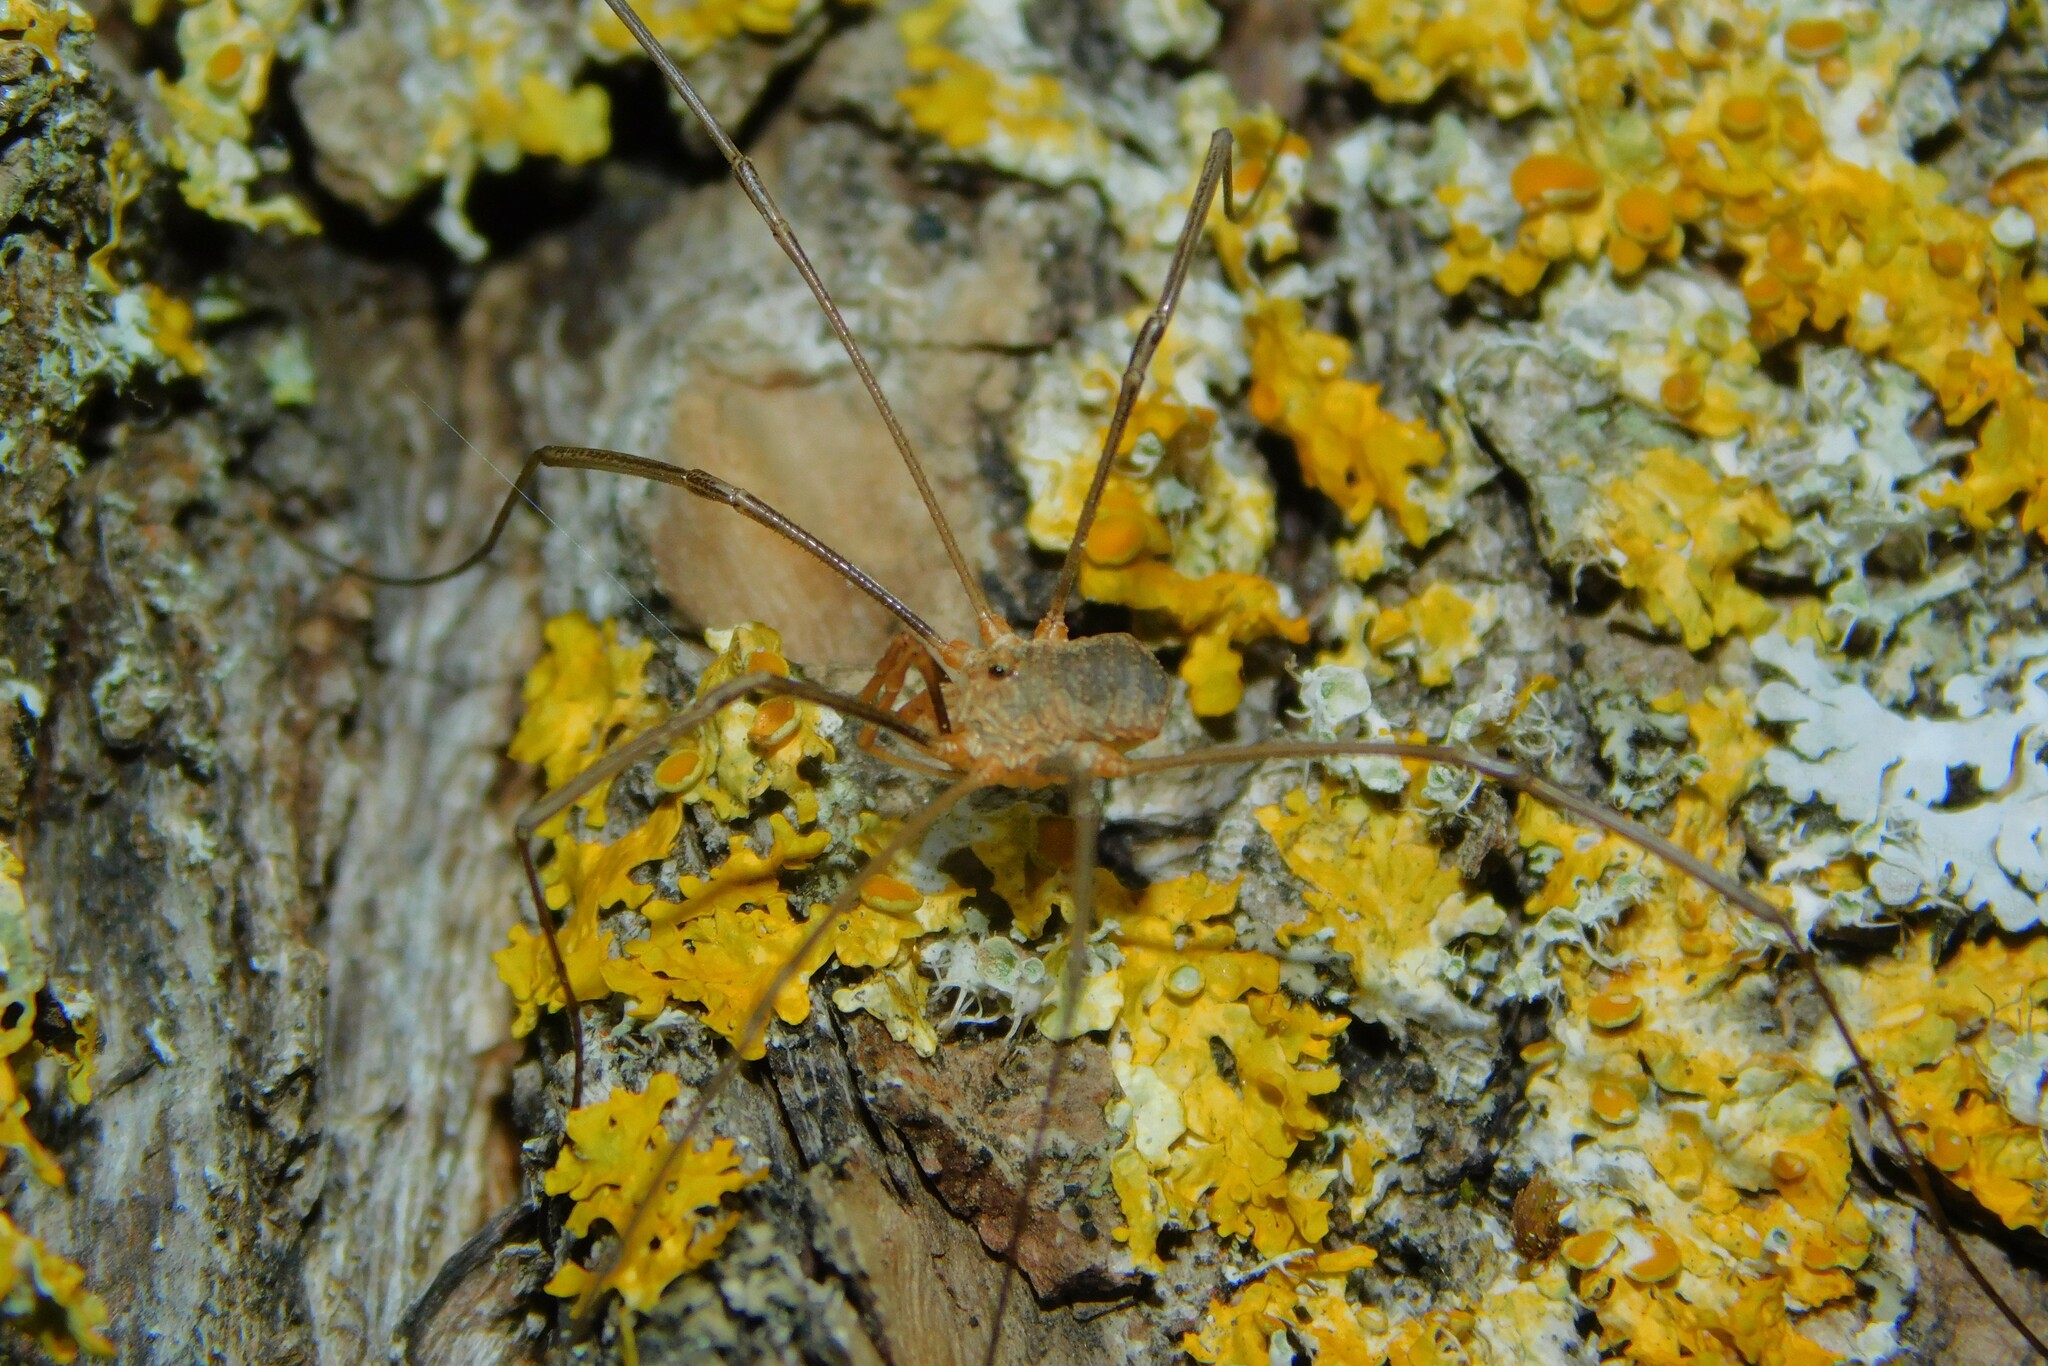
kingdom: Animalia
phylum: Arthropoda
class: Arachnida
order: Opiliones
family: Phalangiidae
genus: Phalangium
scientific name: Phalangium opilio
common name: Daddy longleg
